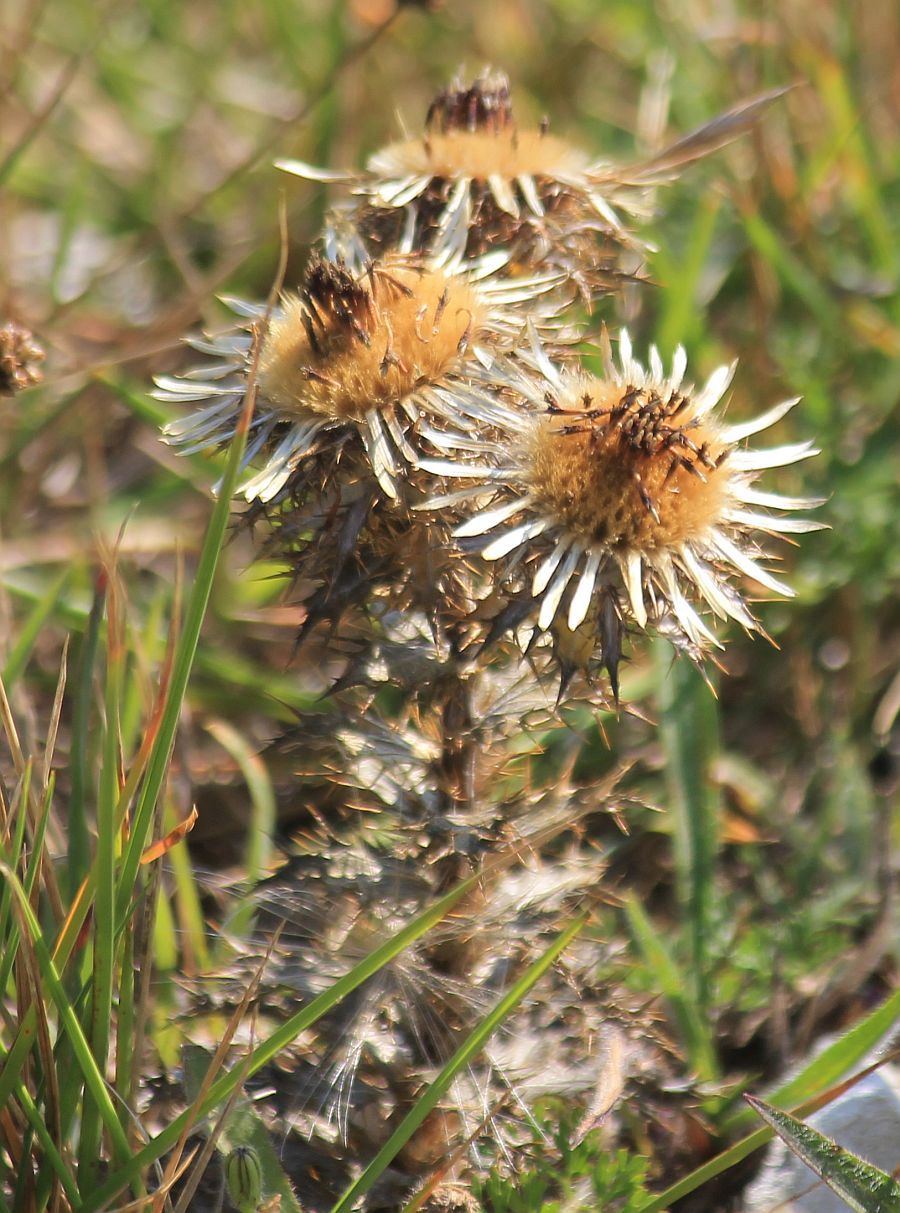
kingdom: Plantae
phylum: Tracheophyta
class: Magnoliopsida
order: Asterales
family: Asteraceae
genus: Carlina
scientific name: Carlina vulgaris
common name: Carline thistle
